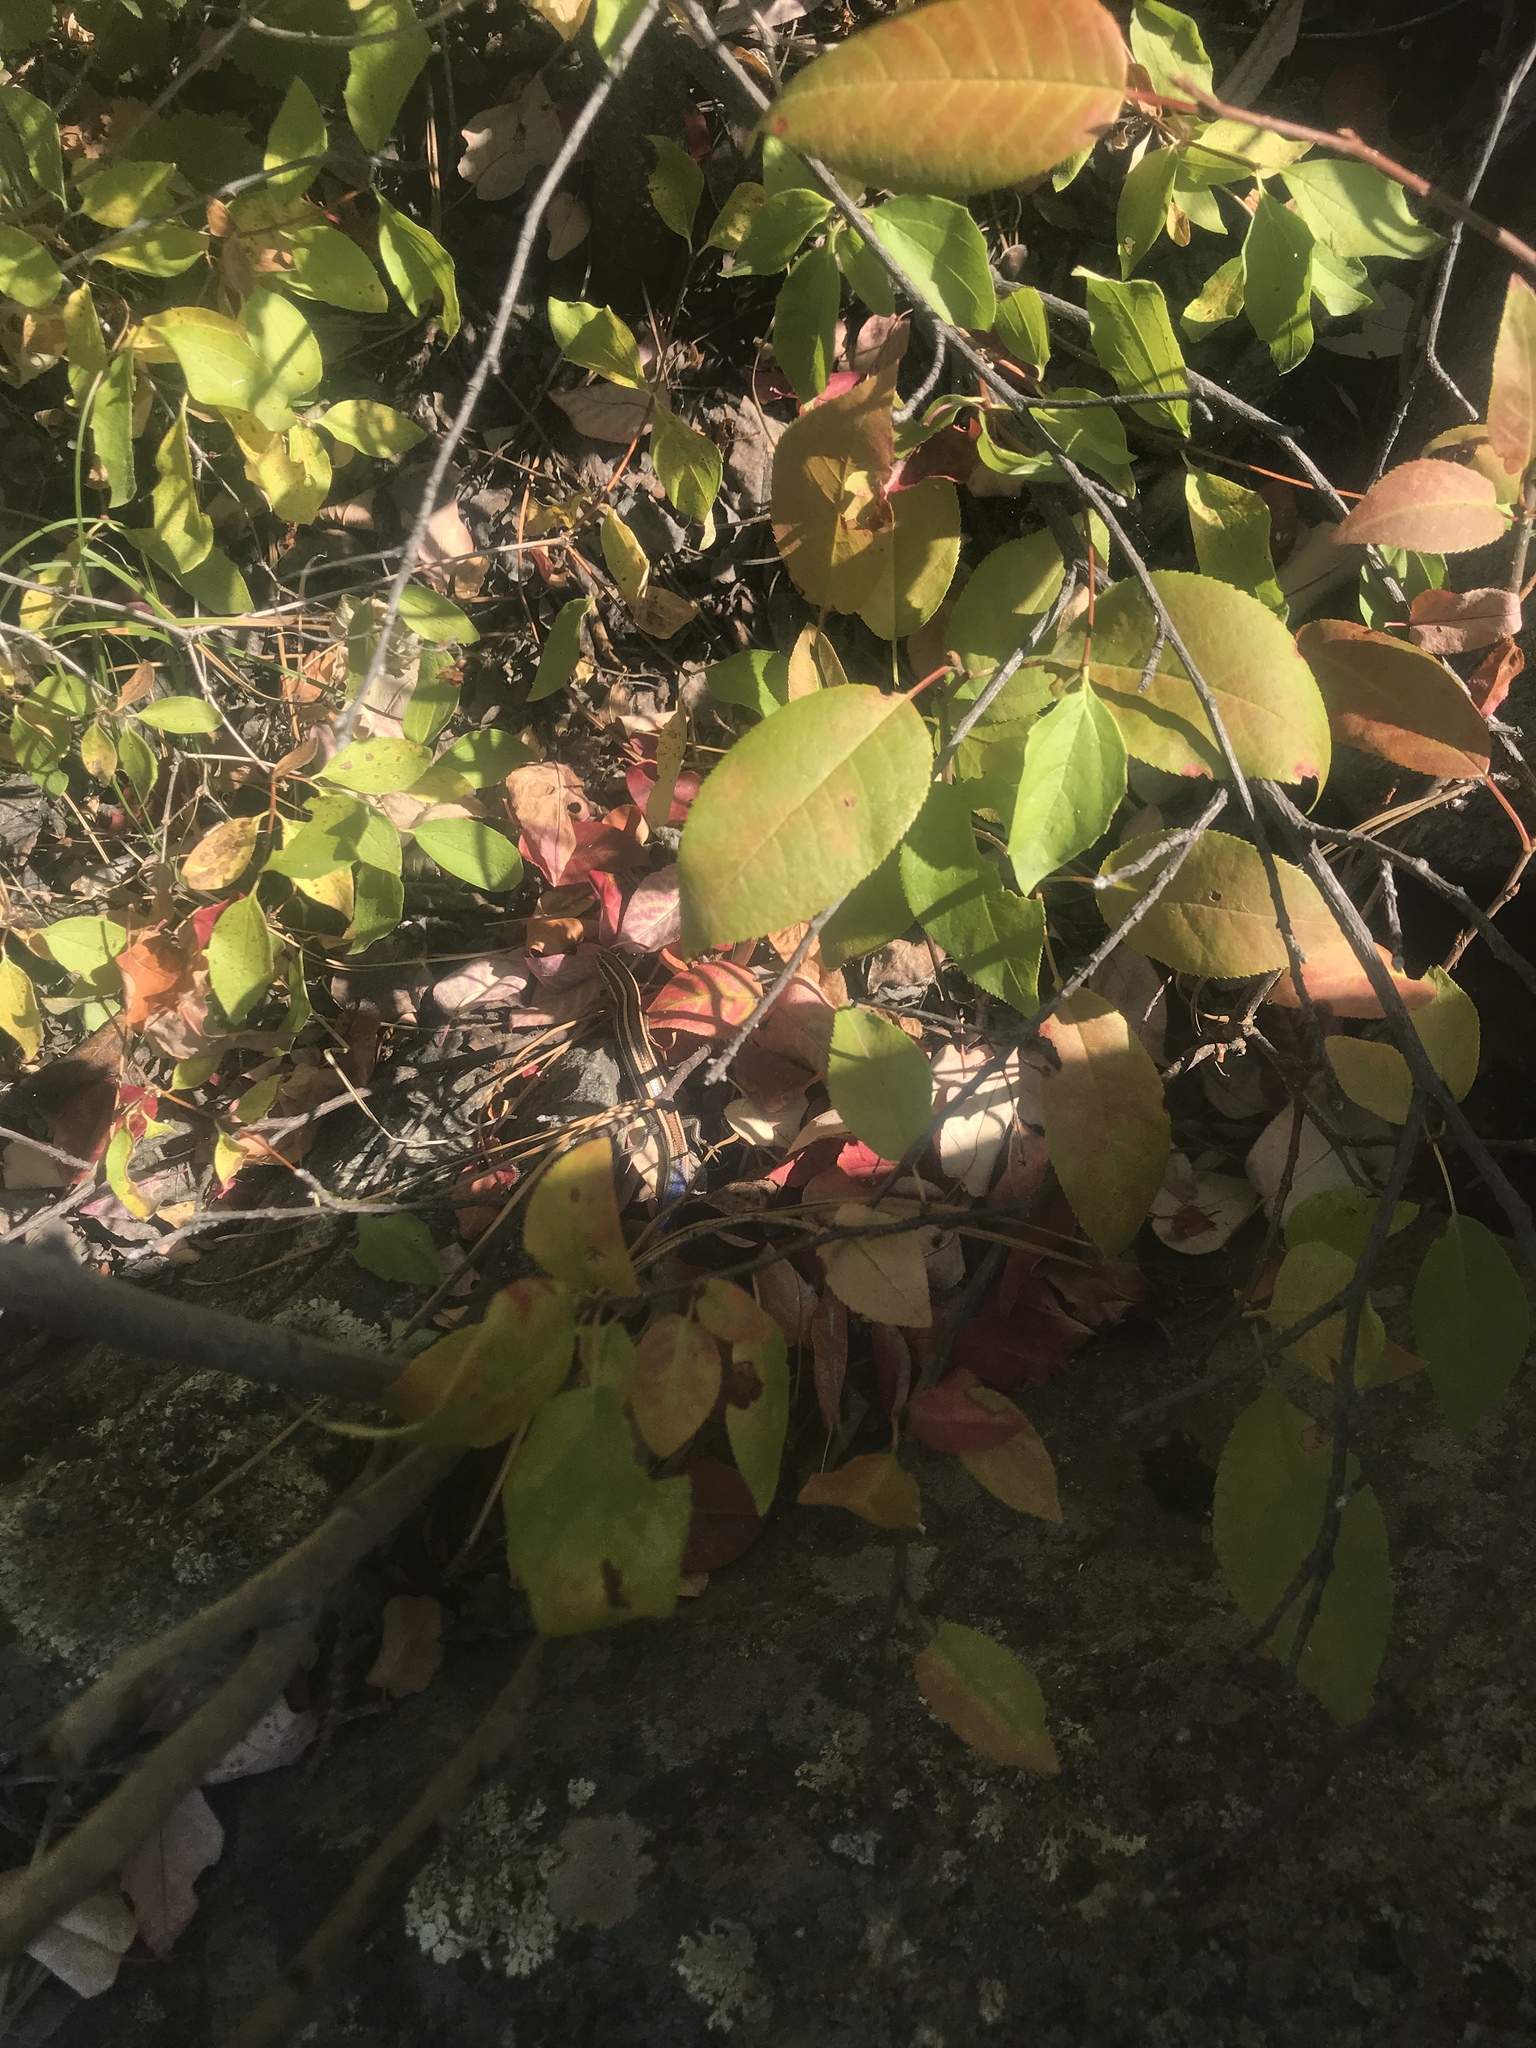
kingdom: Animalia
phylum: Chordata
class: Squamata
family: Scincidae
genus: Plestiodon
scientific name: Plestiodon skiltonianus
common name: Coronado island skink [interparietalis]
